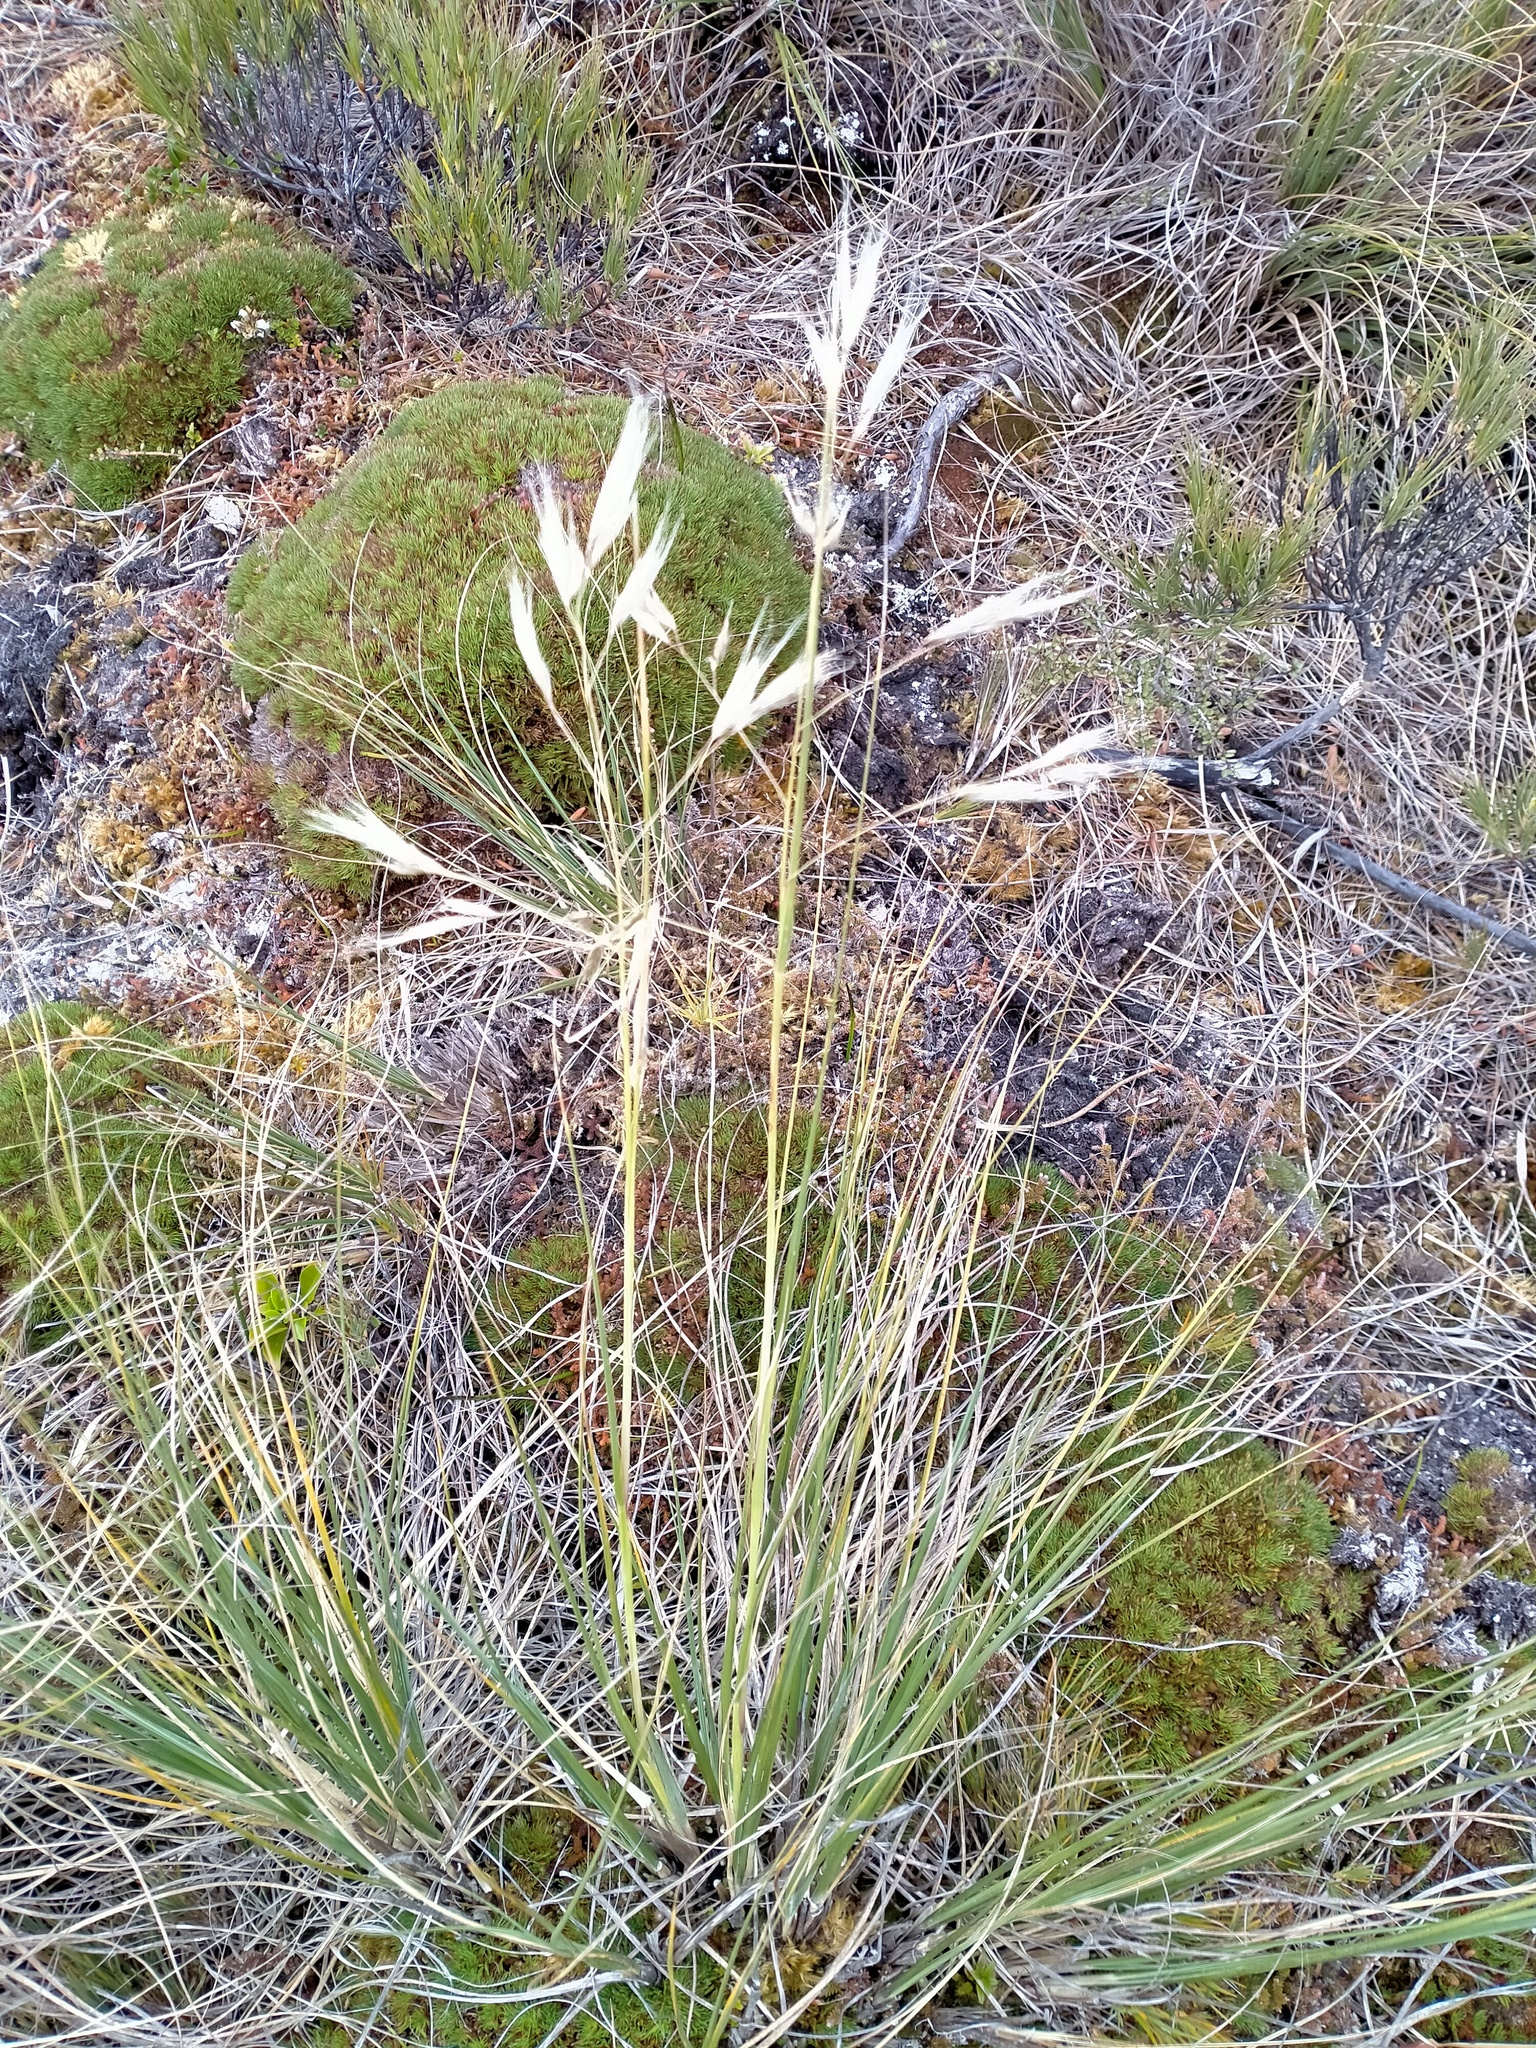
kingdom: Plantae
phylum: Tracheophyta
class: Liliopsida
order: Poales
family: Poaceae
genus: Chionochloa
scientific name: Chionochloa antarctica
